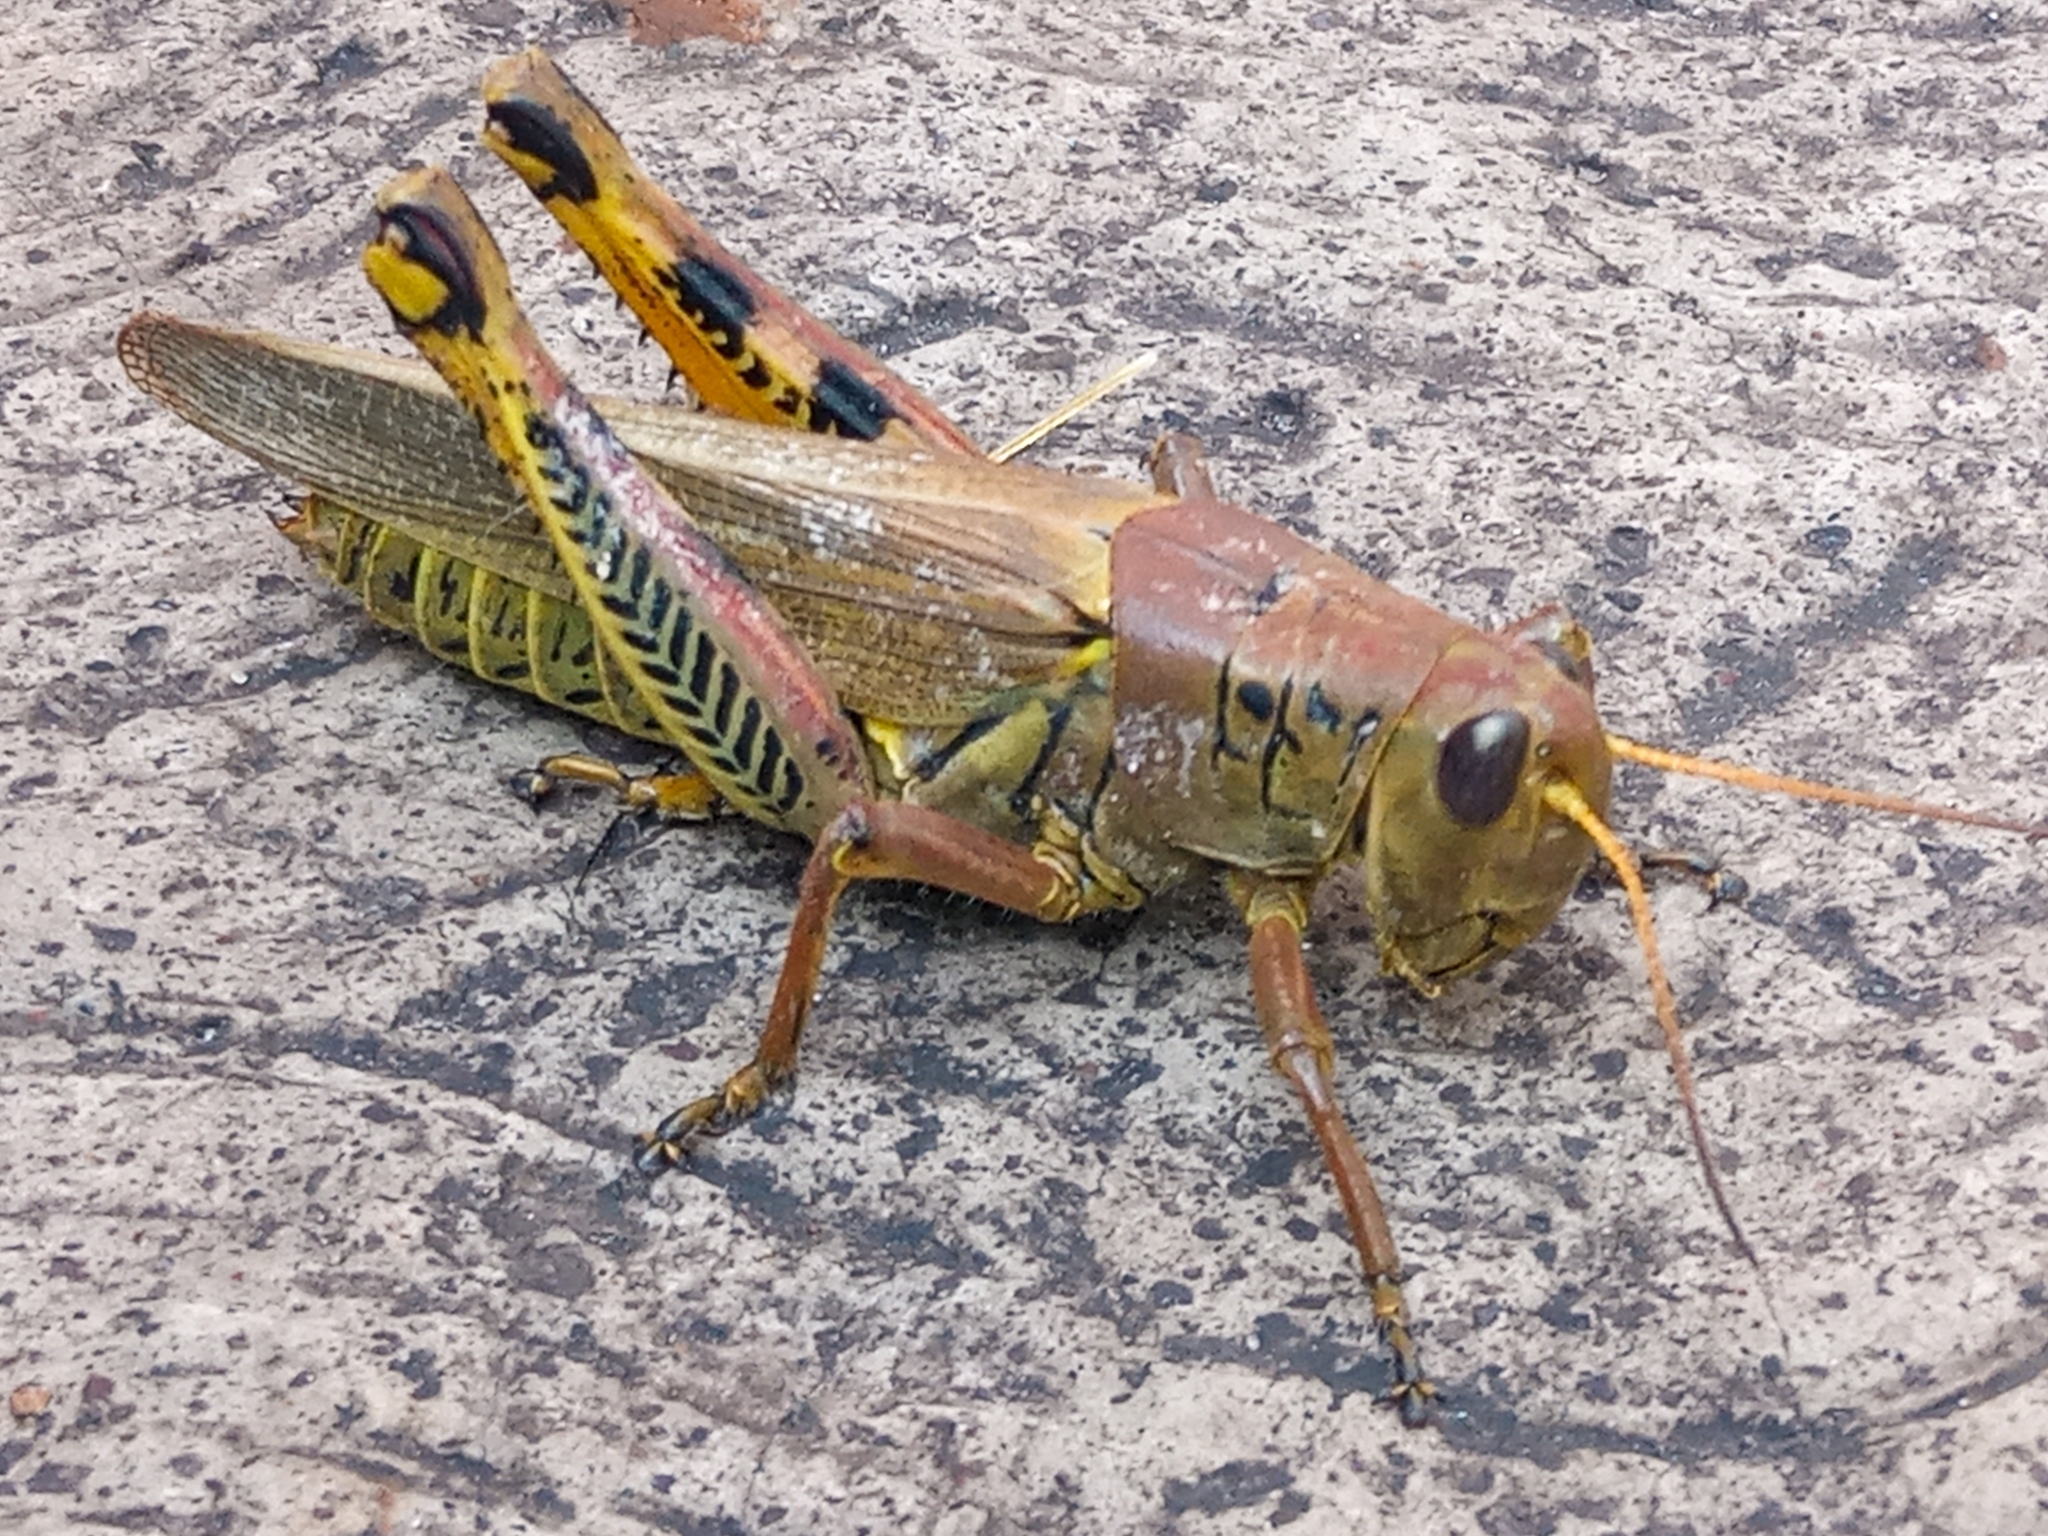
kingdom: Animalia
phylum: Arthropoda
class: Insecta
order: Orthoptera
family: Acrididae
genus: Melanoplus
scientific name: Melanoplus differentialis
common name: Differential grasshopper
